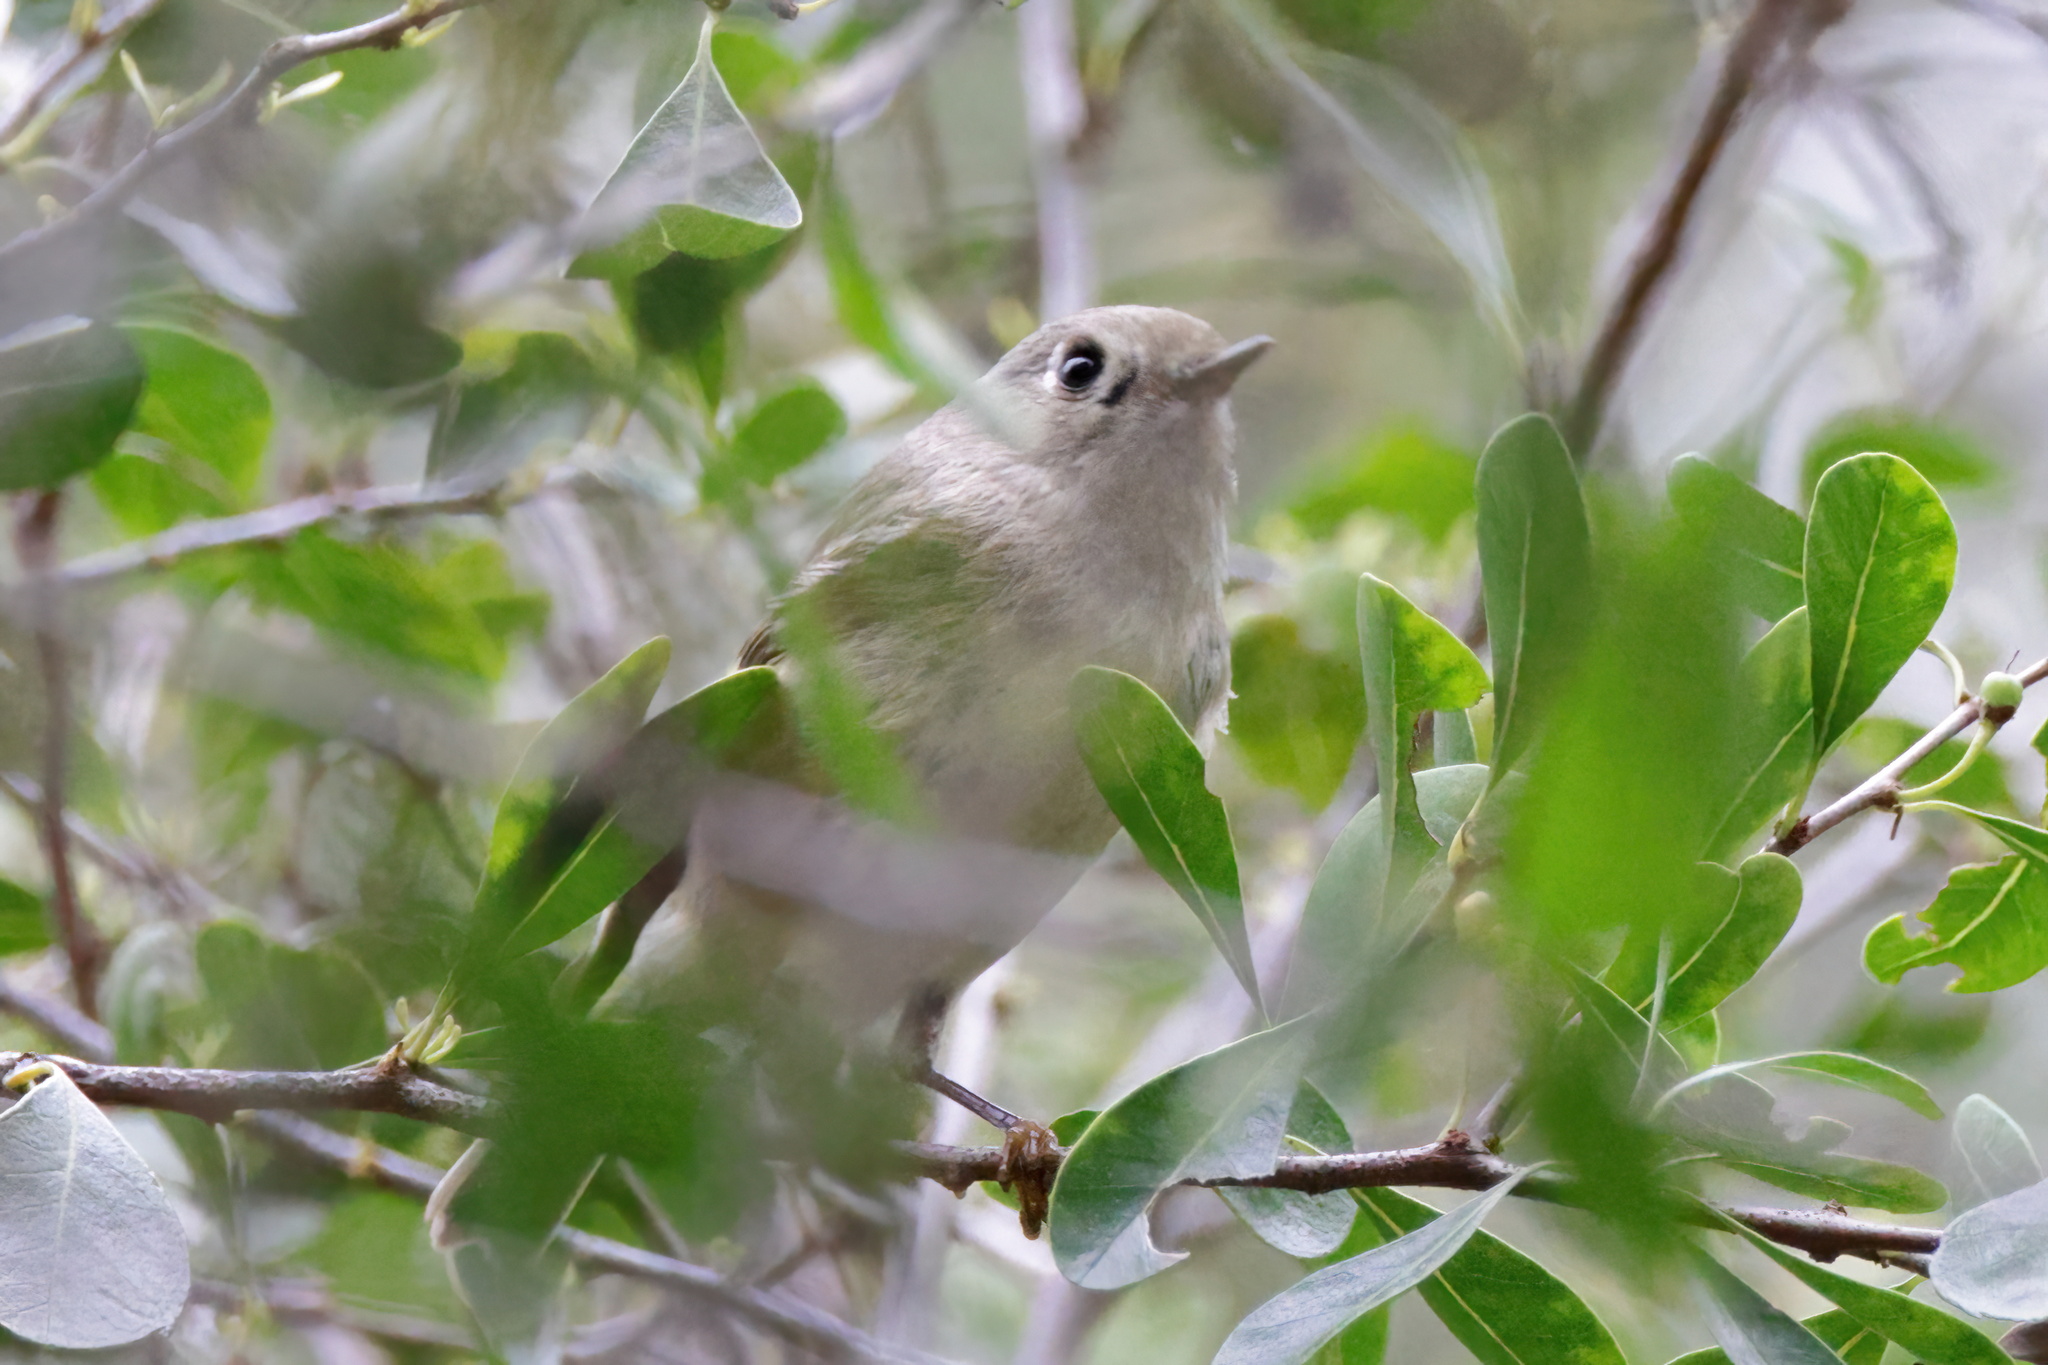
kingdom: Animalia
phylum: Chordata
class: Aves
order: Passeriformes
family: Regulidae
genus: Regulus
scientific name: Regulus calendula
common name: Ruby-crowned kinglet
